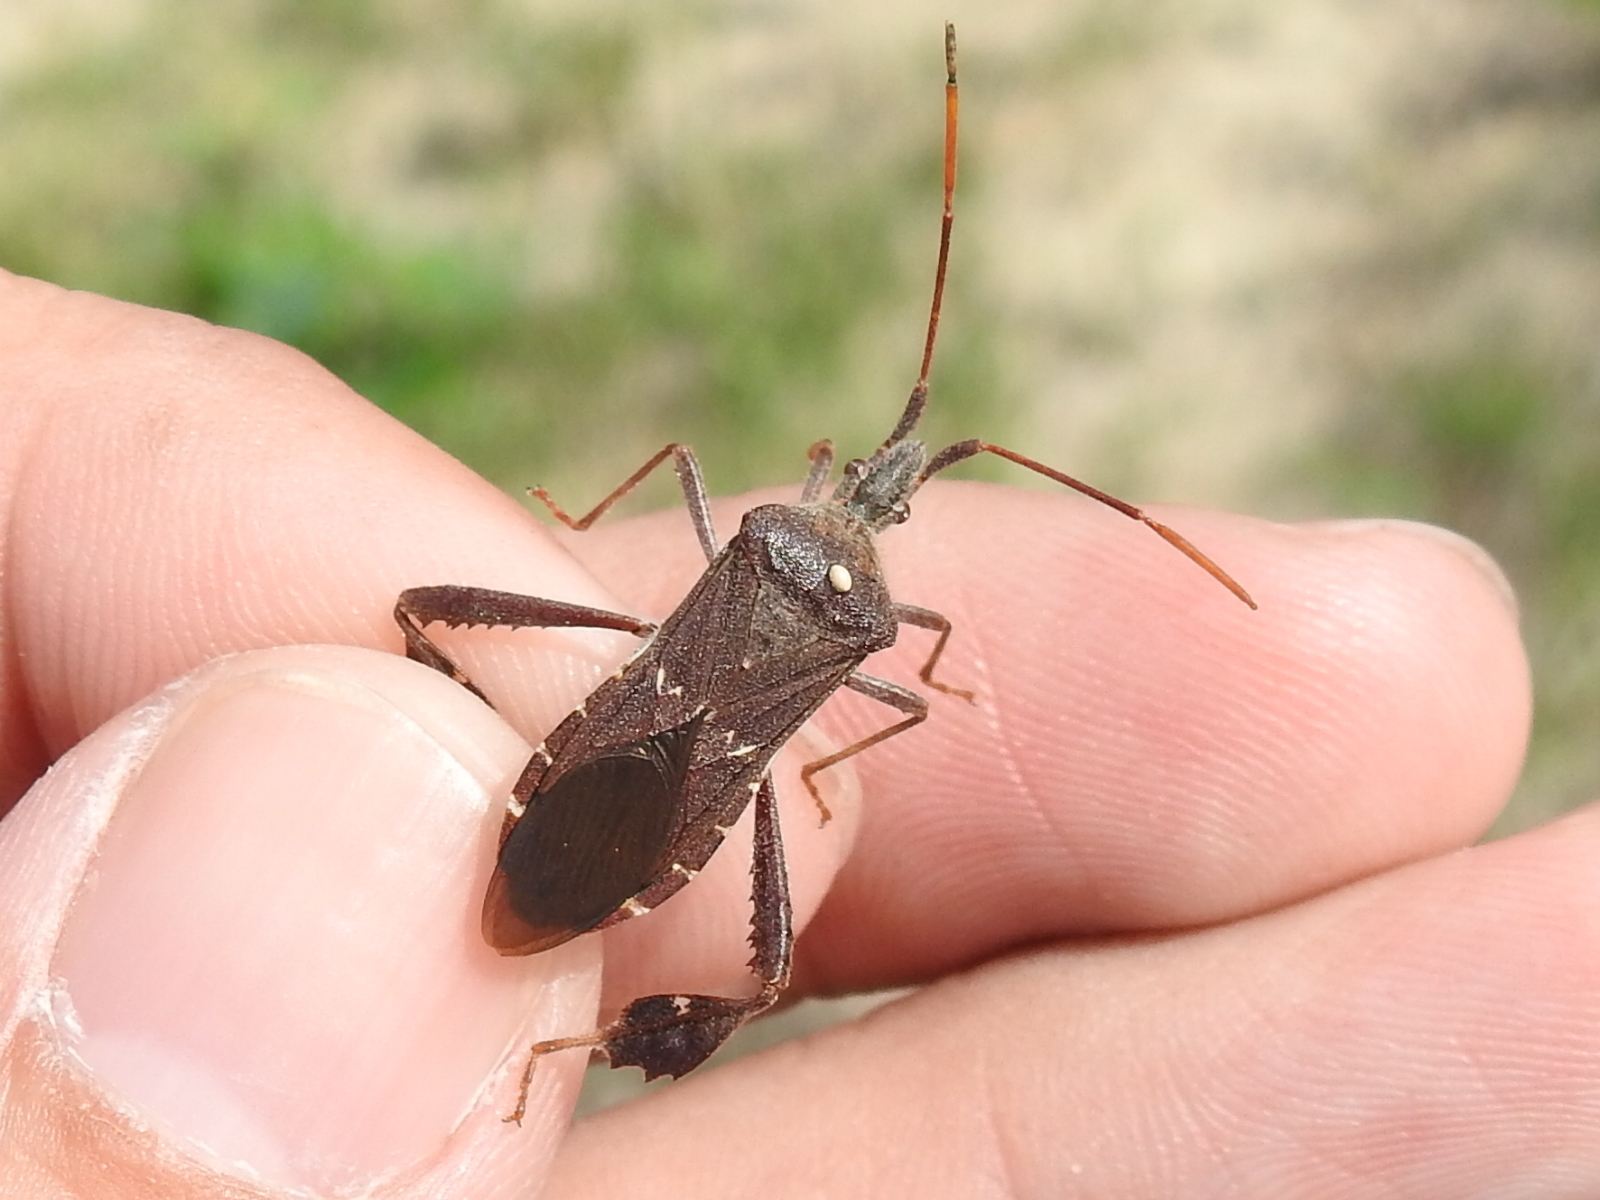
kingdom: Animalia
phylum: Arthropoda
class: Insecta
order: Hemiptera
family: Coreidae
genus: Leptoglossus
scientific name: Leptoglossus oppositus
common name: Northern leaf-footed bug
